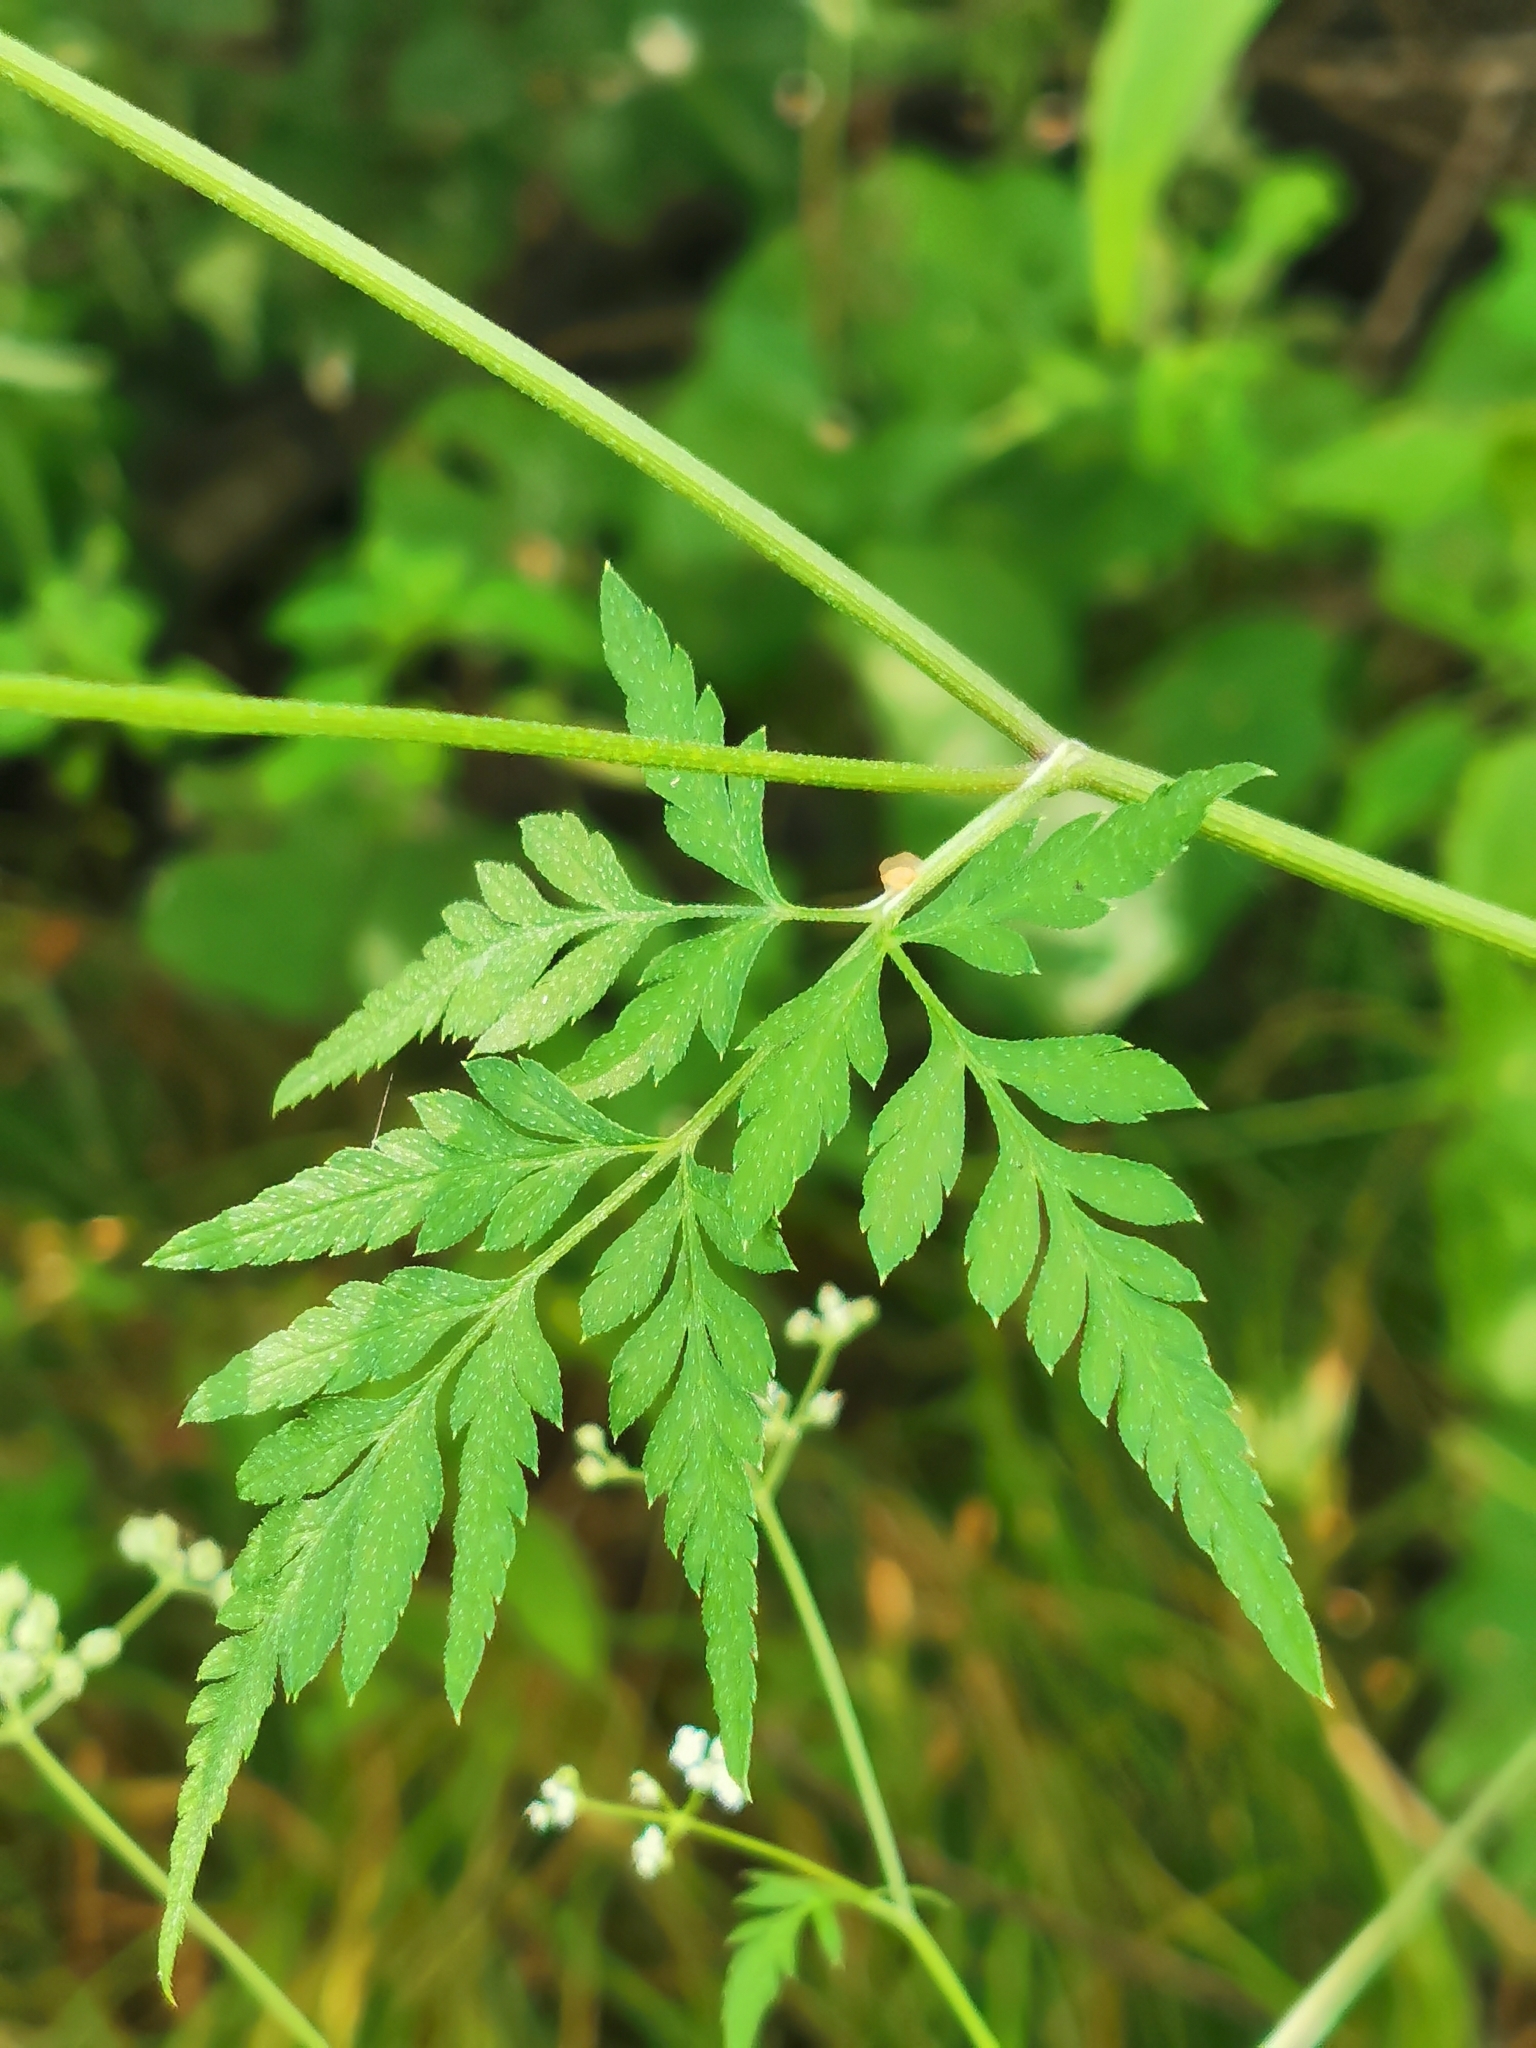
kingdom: Plantae
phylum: Tracheophyta
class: Magnoliopsida
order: Apiales
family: Apiaceae
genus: Torilis
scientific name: Torilis japonica
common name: Upright hedge-parsley
